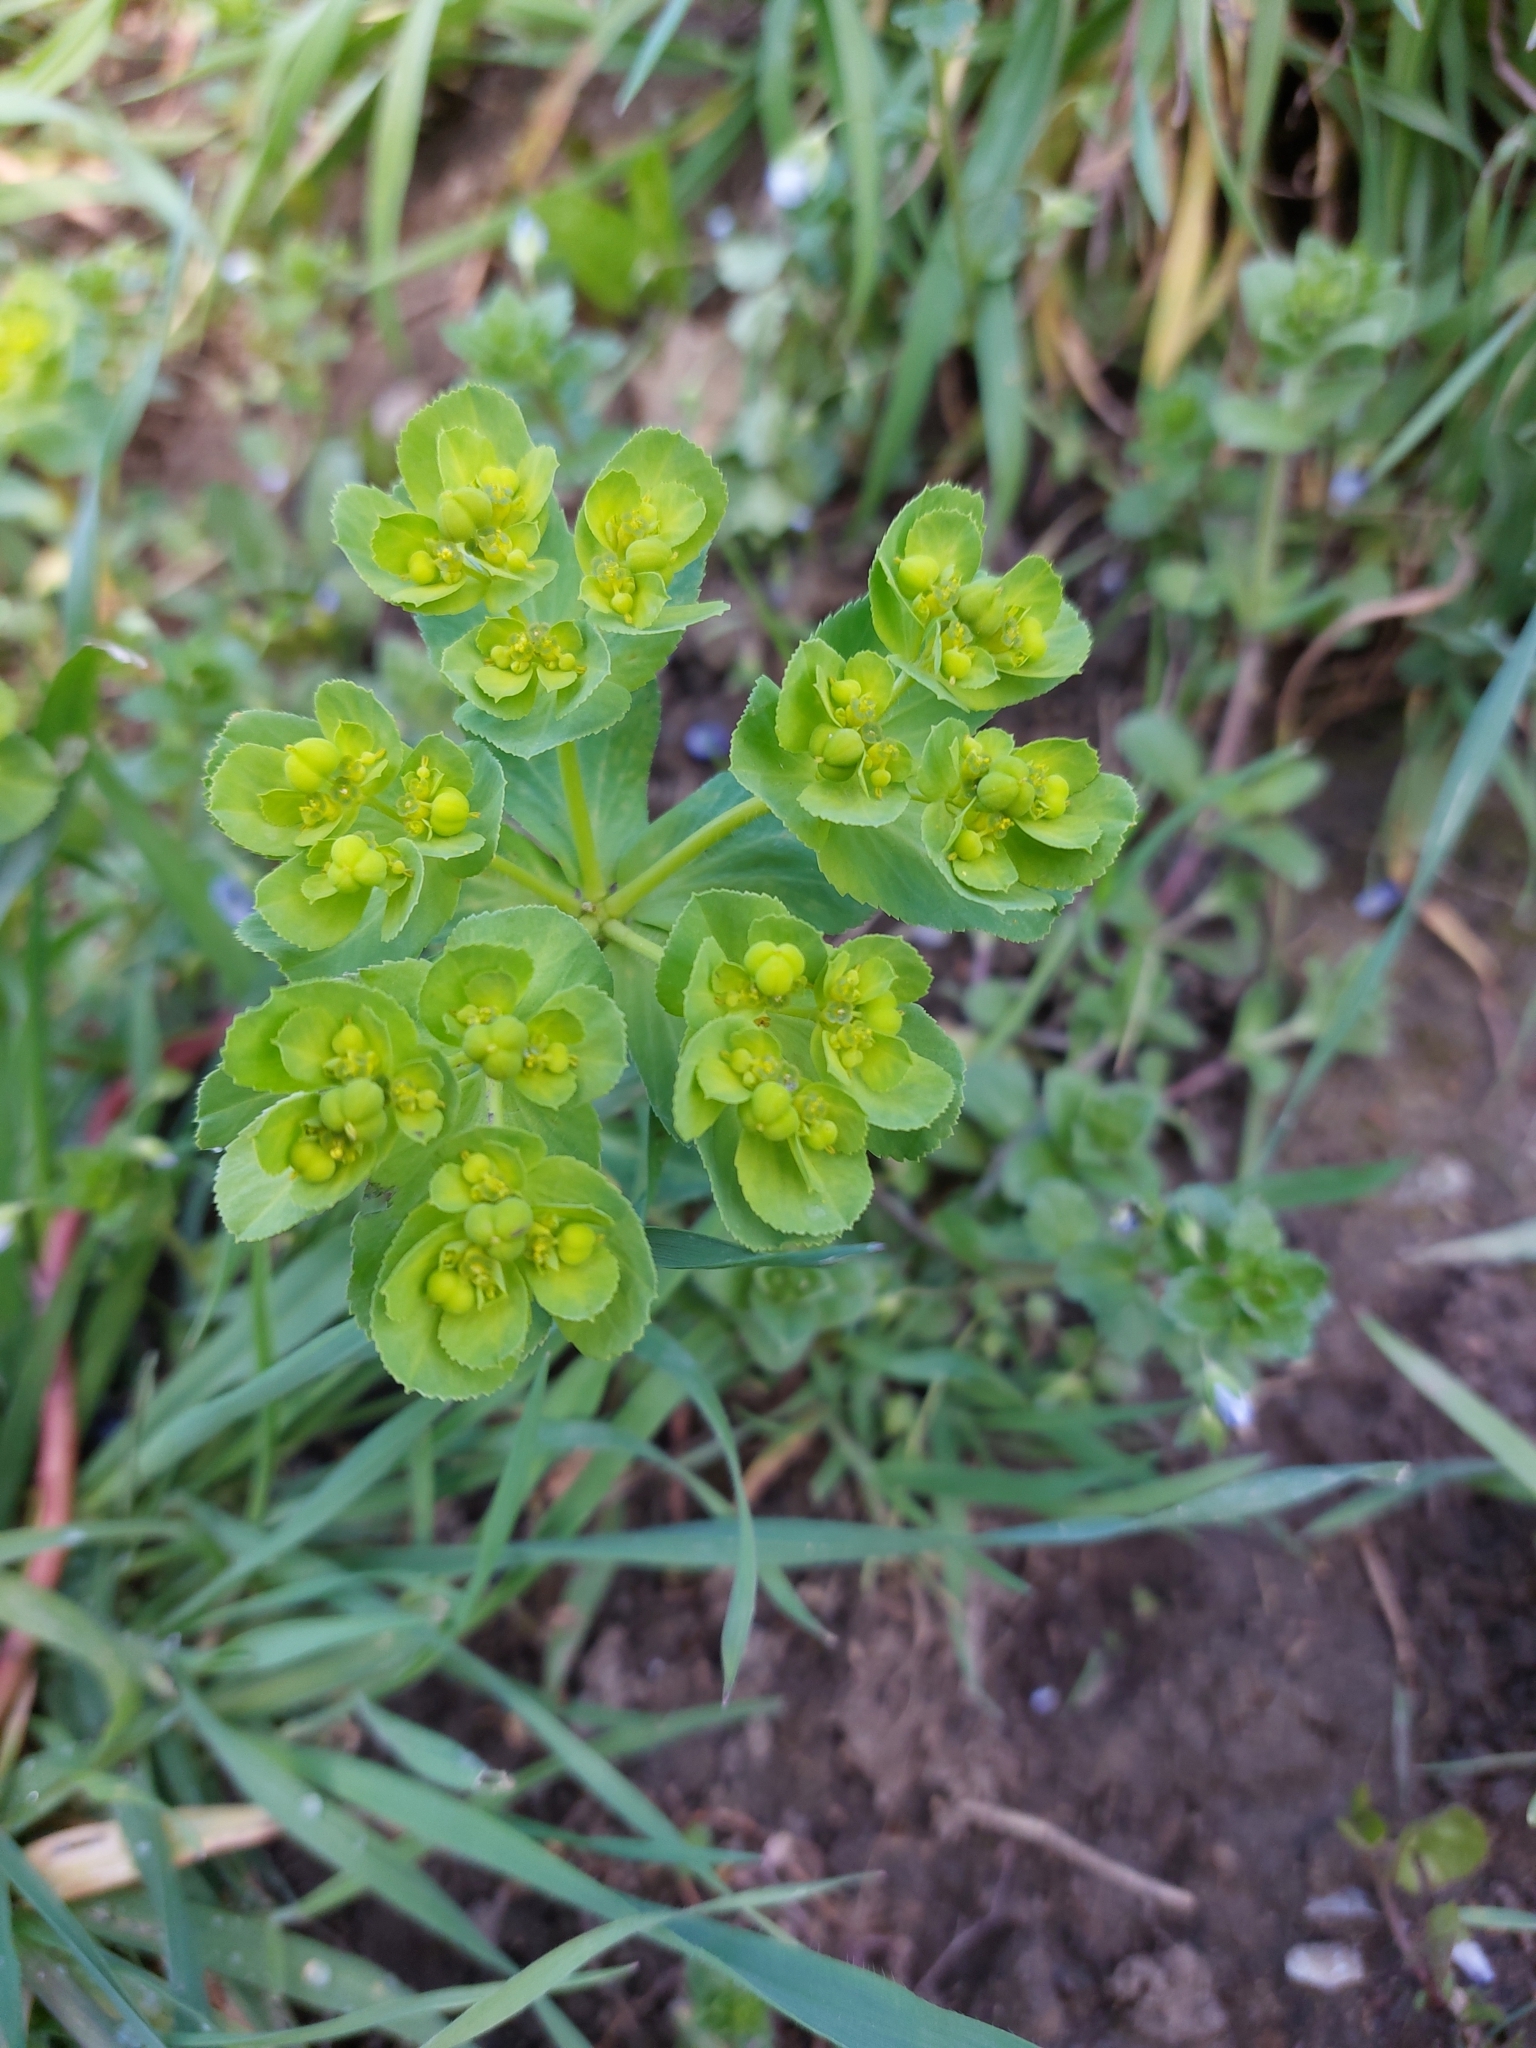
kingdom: Plantae
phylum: Tracheophyta
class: Magnoliopsida
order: Malpighiales
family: Euphorbiaceae
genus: Euphorbia
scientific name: Euphorbia helioscopia
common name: Sun spurge
